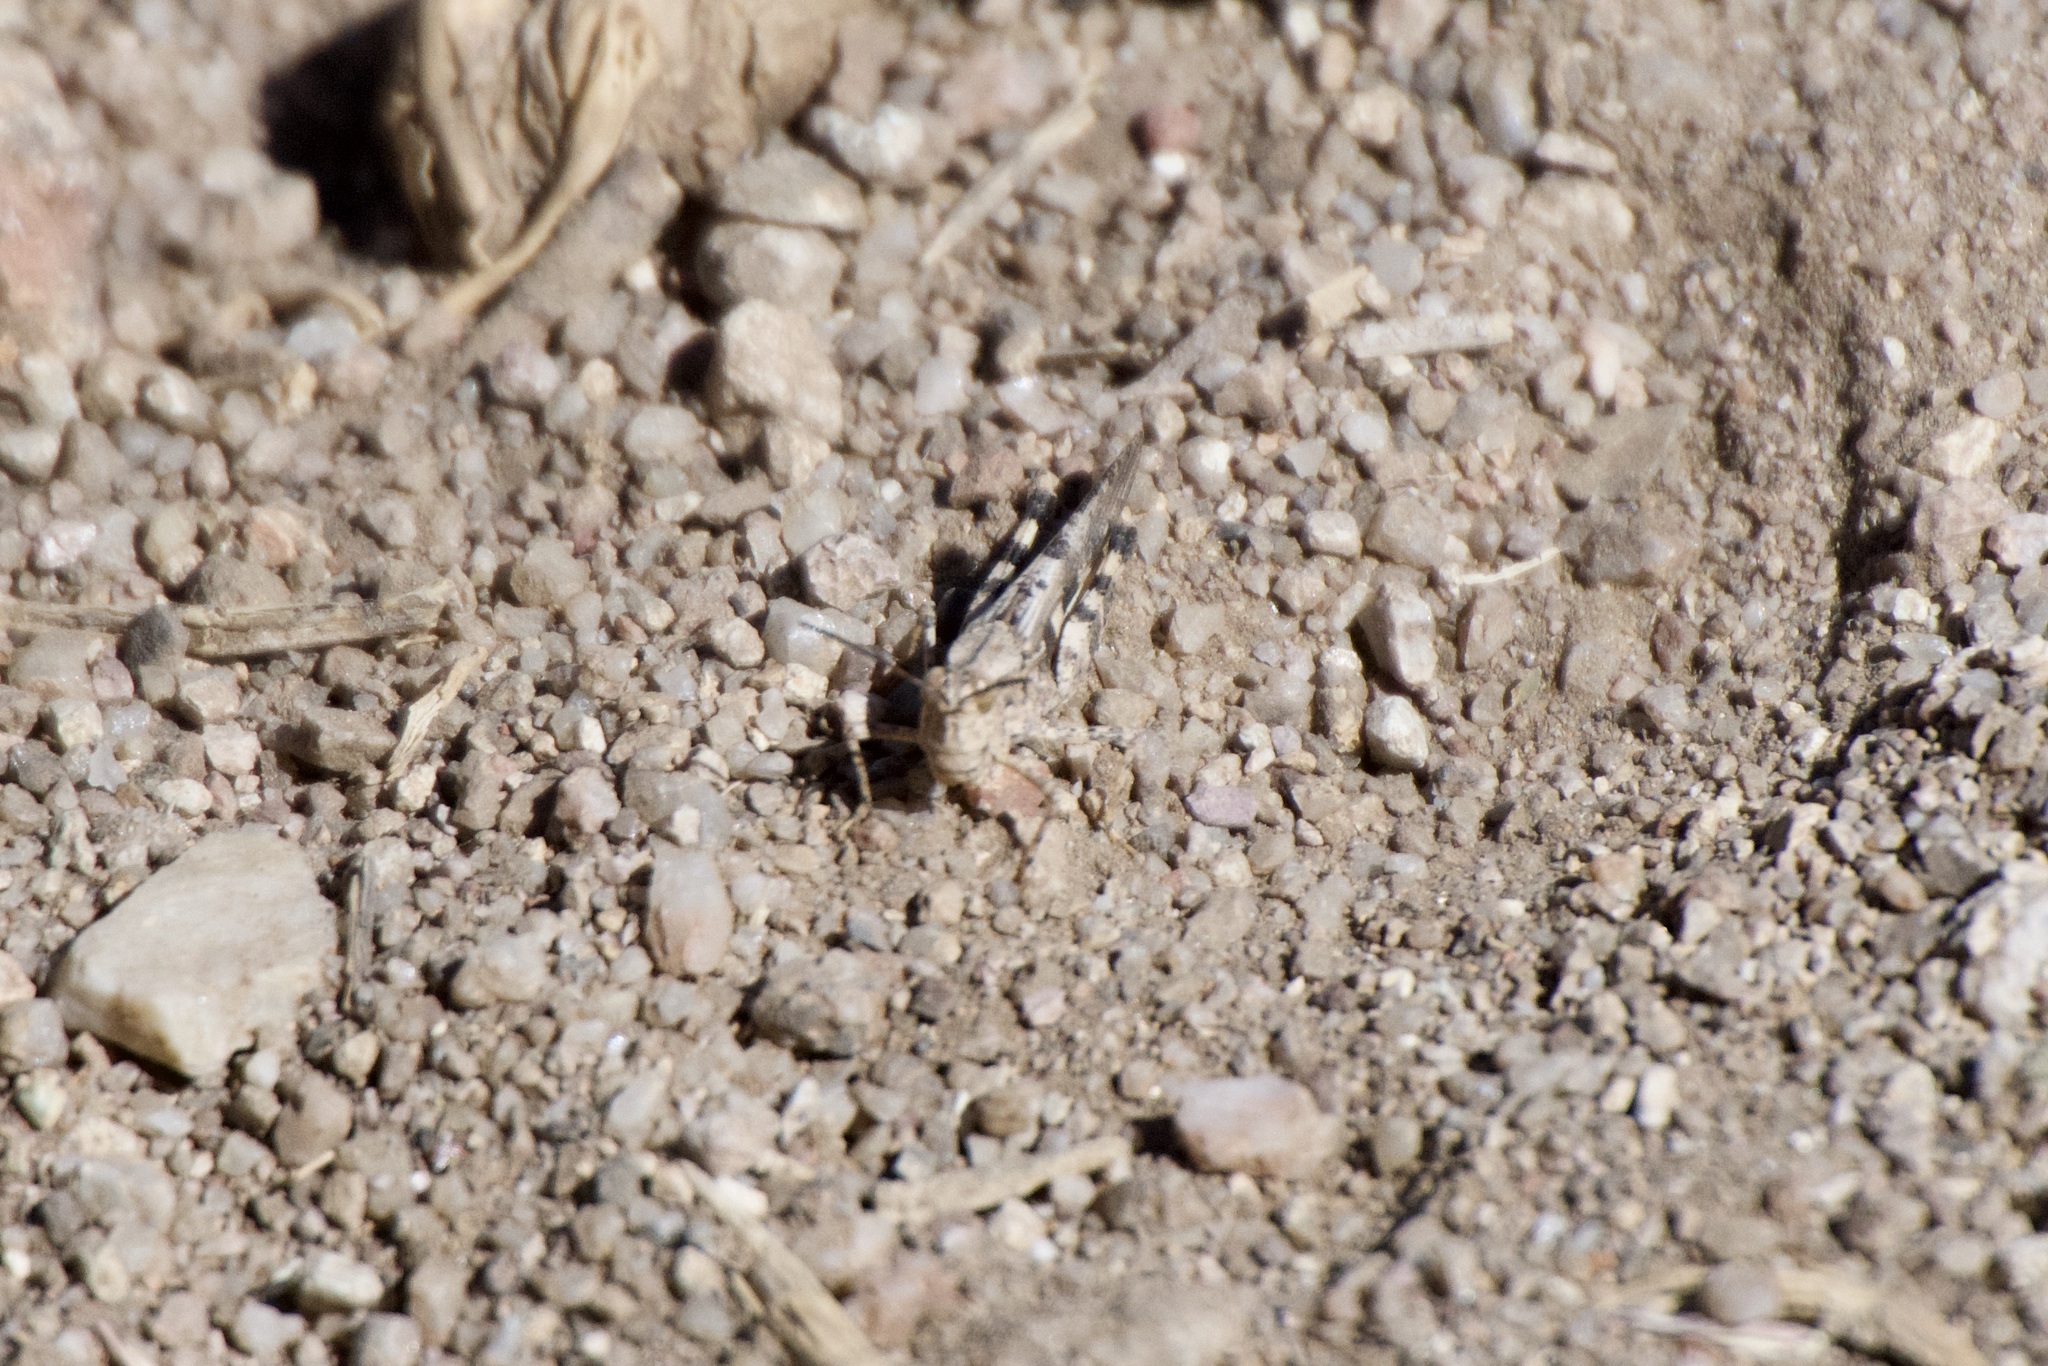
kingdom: Animalia
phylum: Arthropoda
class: Insecta
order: Orthoptera
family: Acrididae
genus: Conozoa
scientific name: Conozoa carinata
